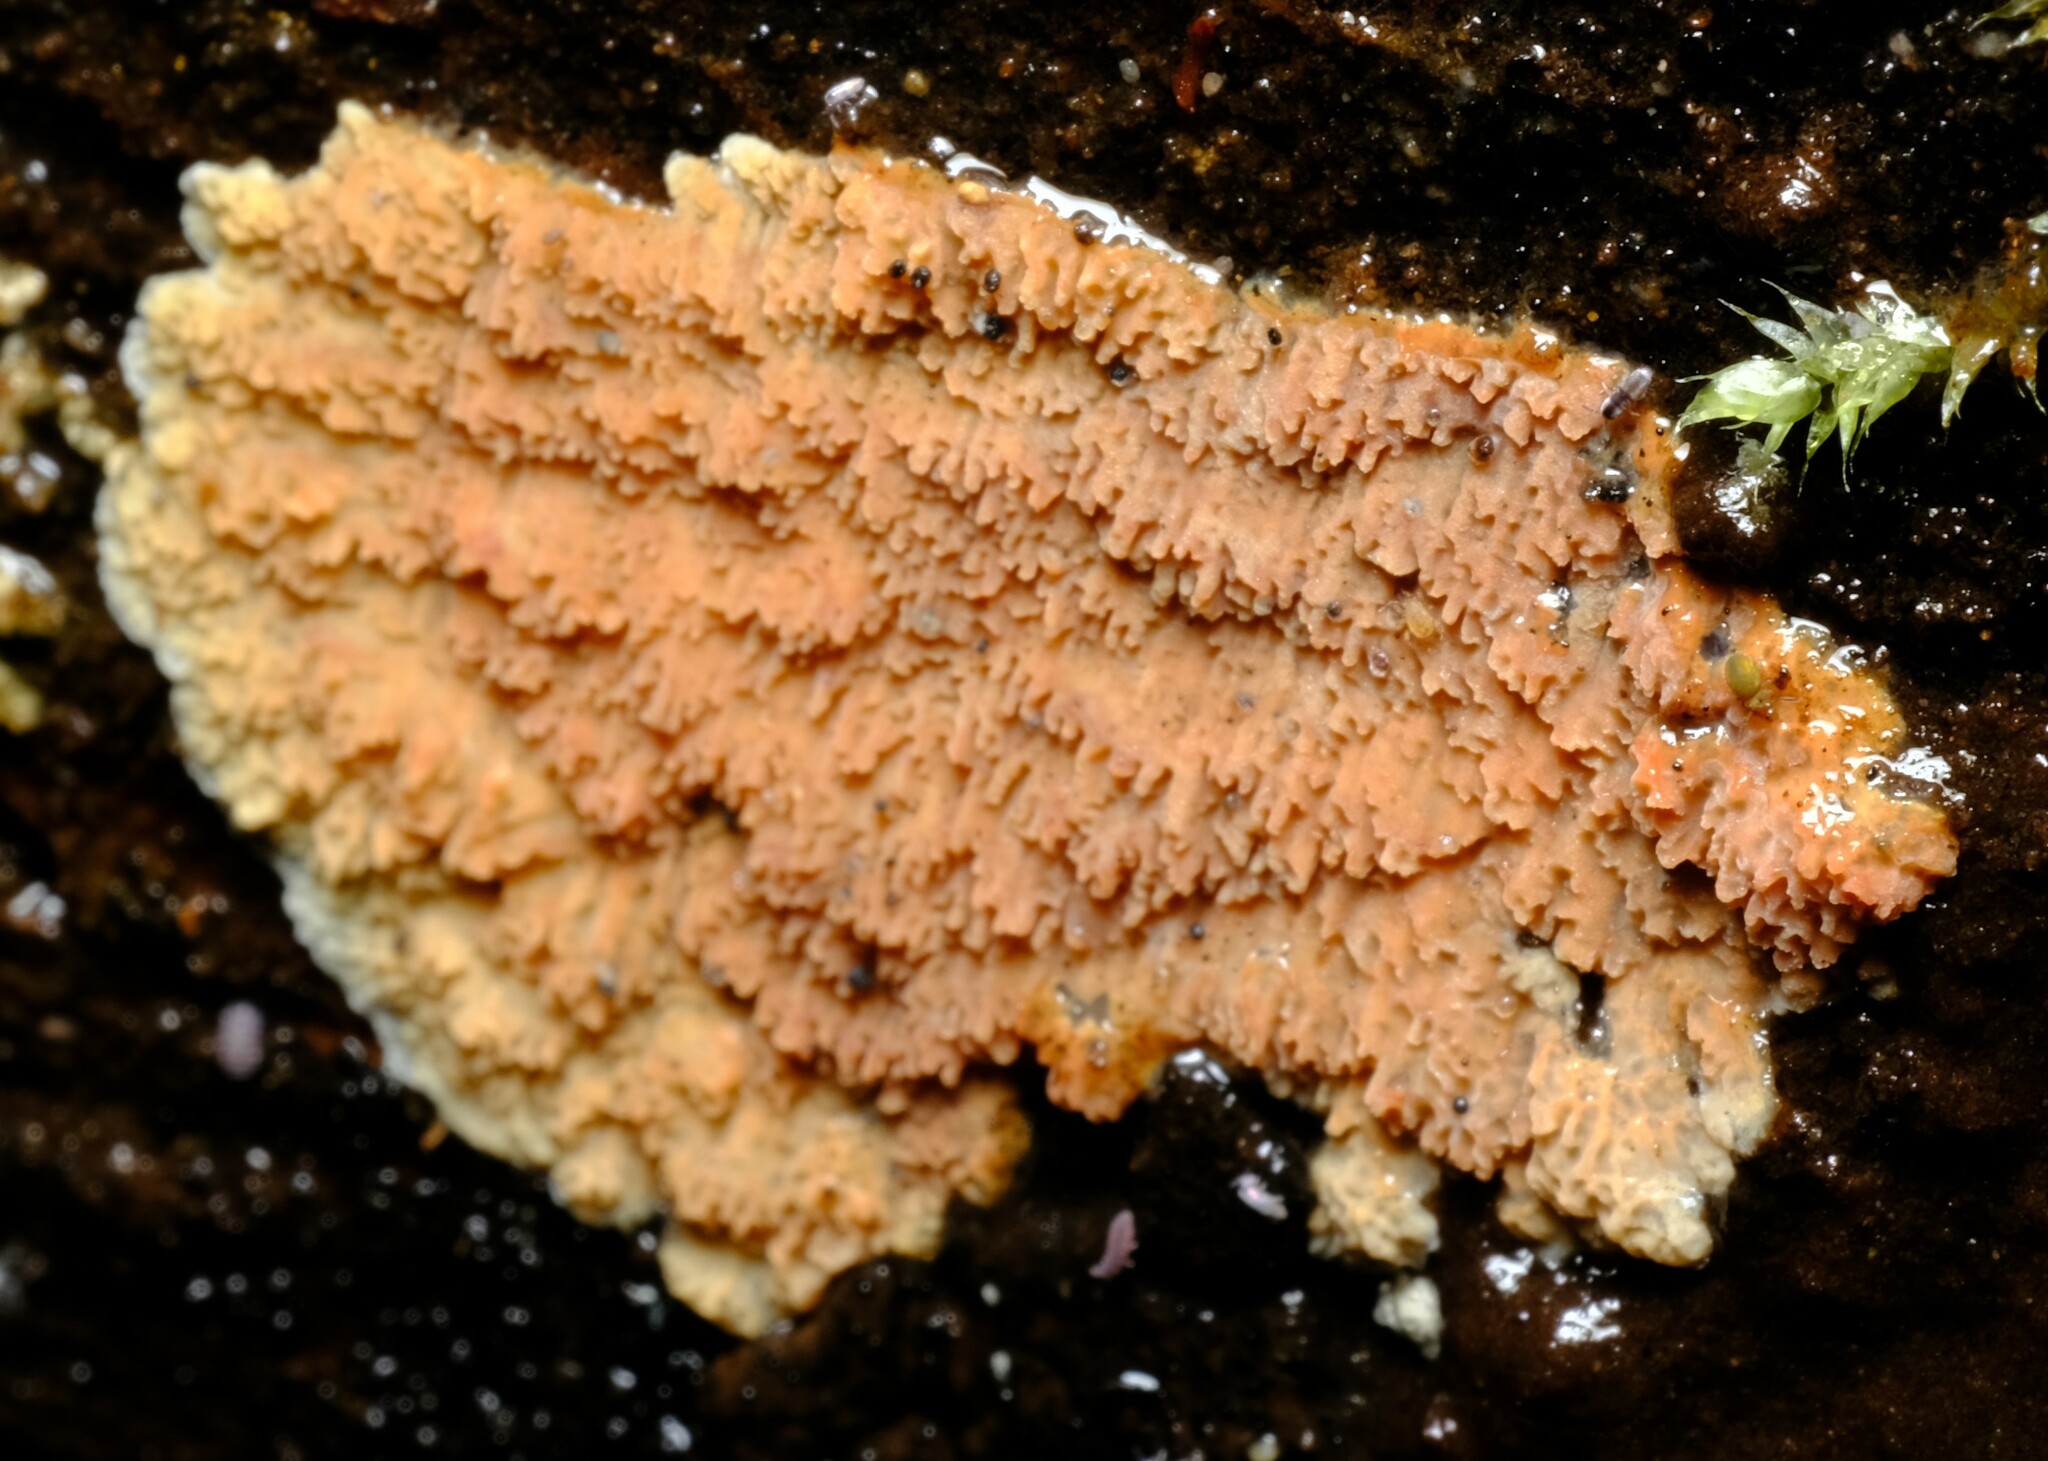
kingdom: Fungi
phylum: Basidiomycota
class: Agaricomycetes
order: Polyporales
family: Irpicaceae
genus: Meruliopsis
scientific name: Meruliopsis taxicola
